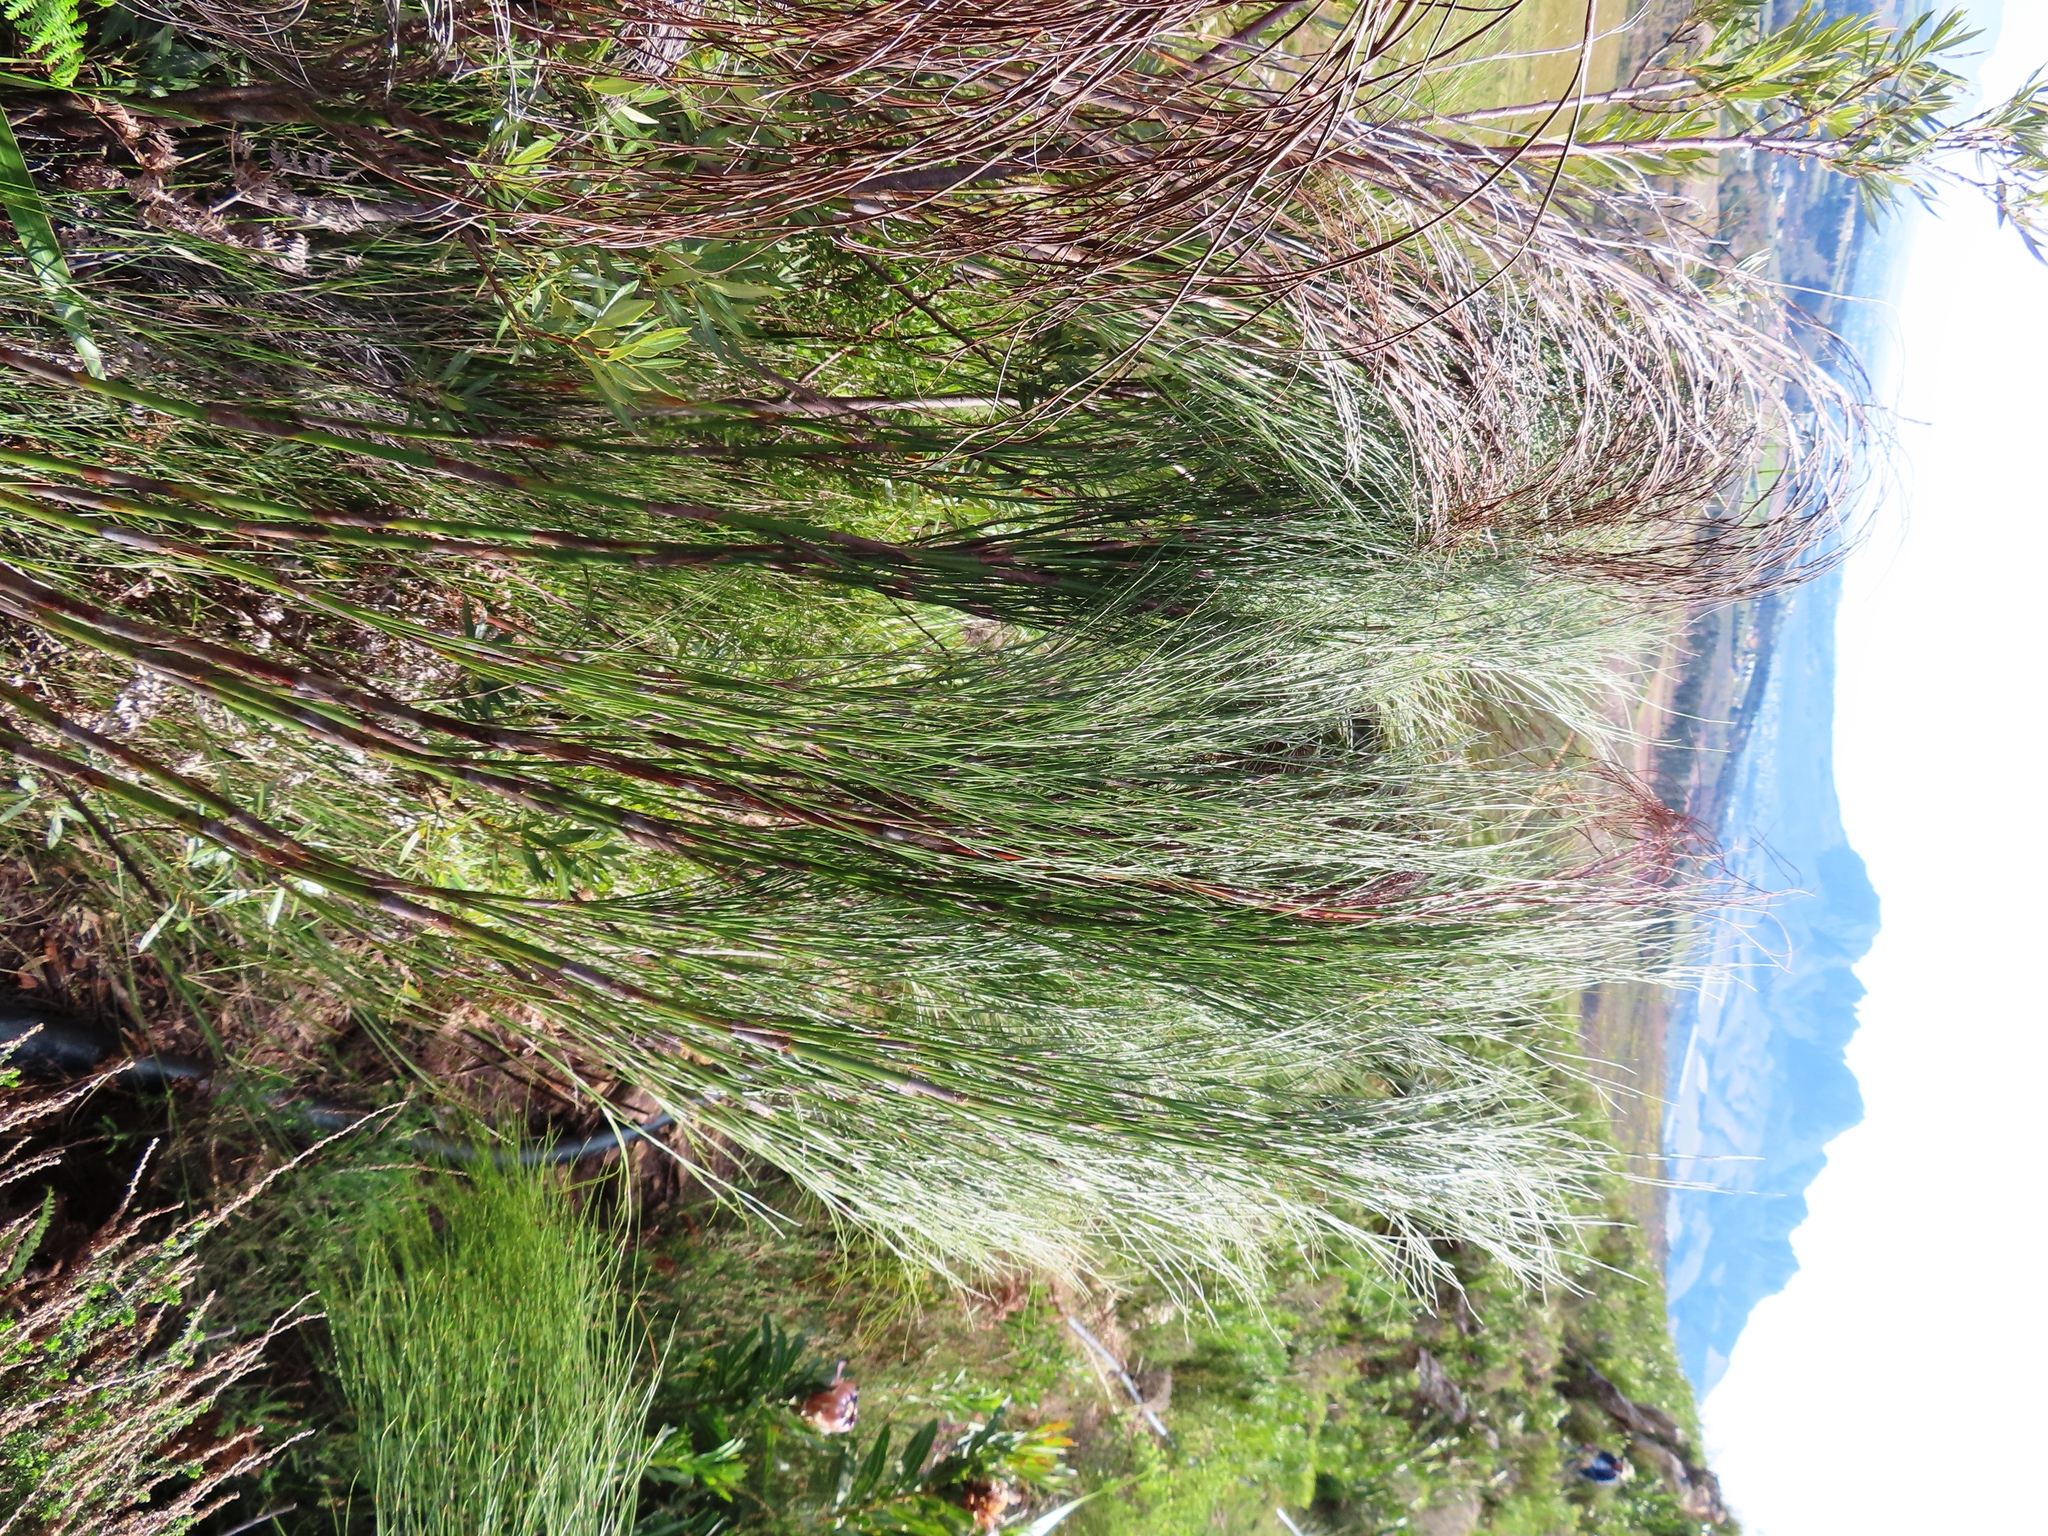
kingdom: Plantae
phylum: Tracheophyta
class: Liliopsida
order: Poales
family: Restionaceae
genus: Cannomois
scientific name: Cannomois virgata
